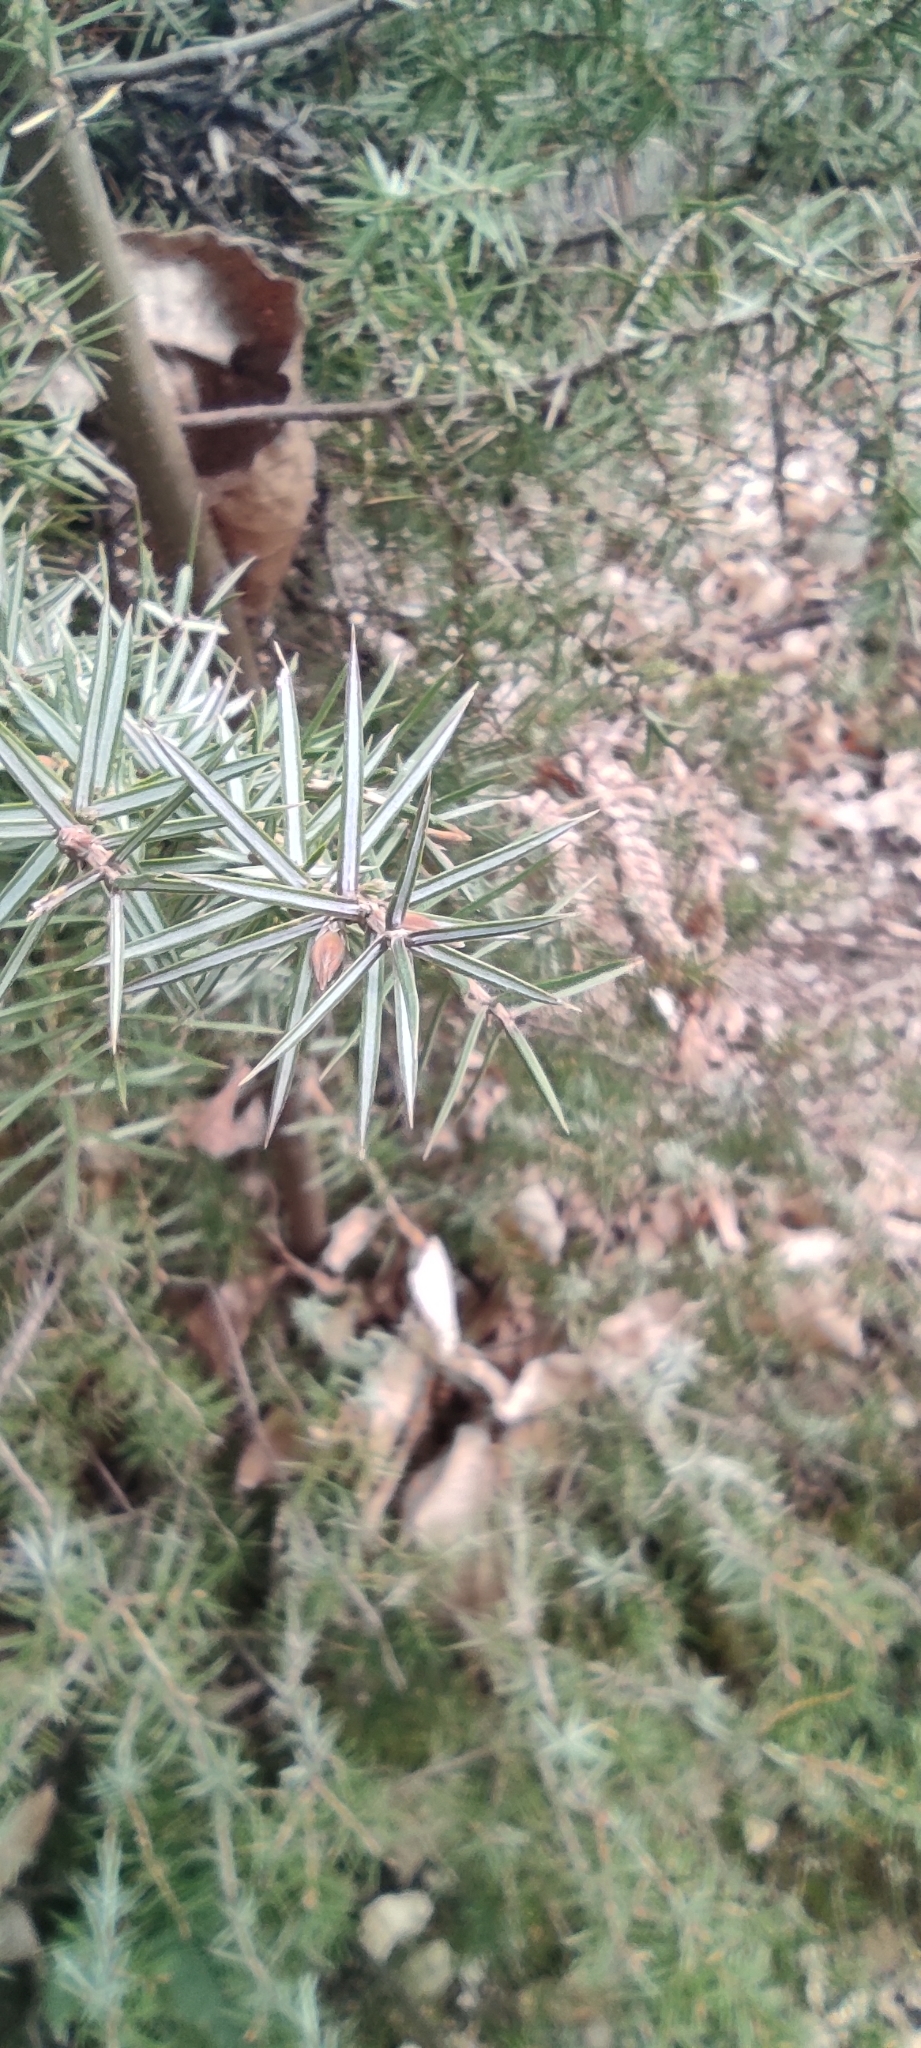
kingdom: Plantae
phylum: Tracheophyta
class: Pinopsida
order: Pinales
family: Cupressaceae
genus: Juniperus
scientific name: Juniperus communis
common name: Common juniper
